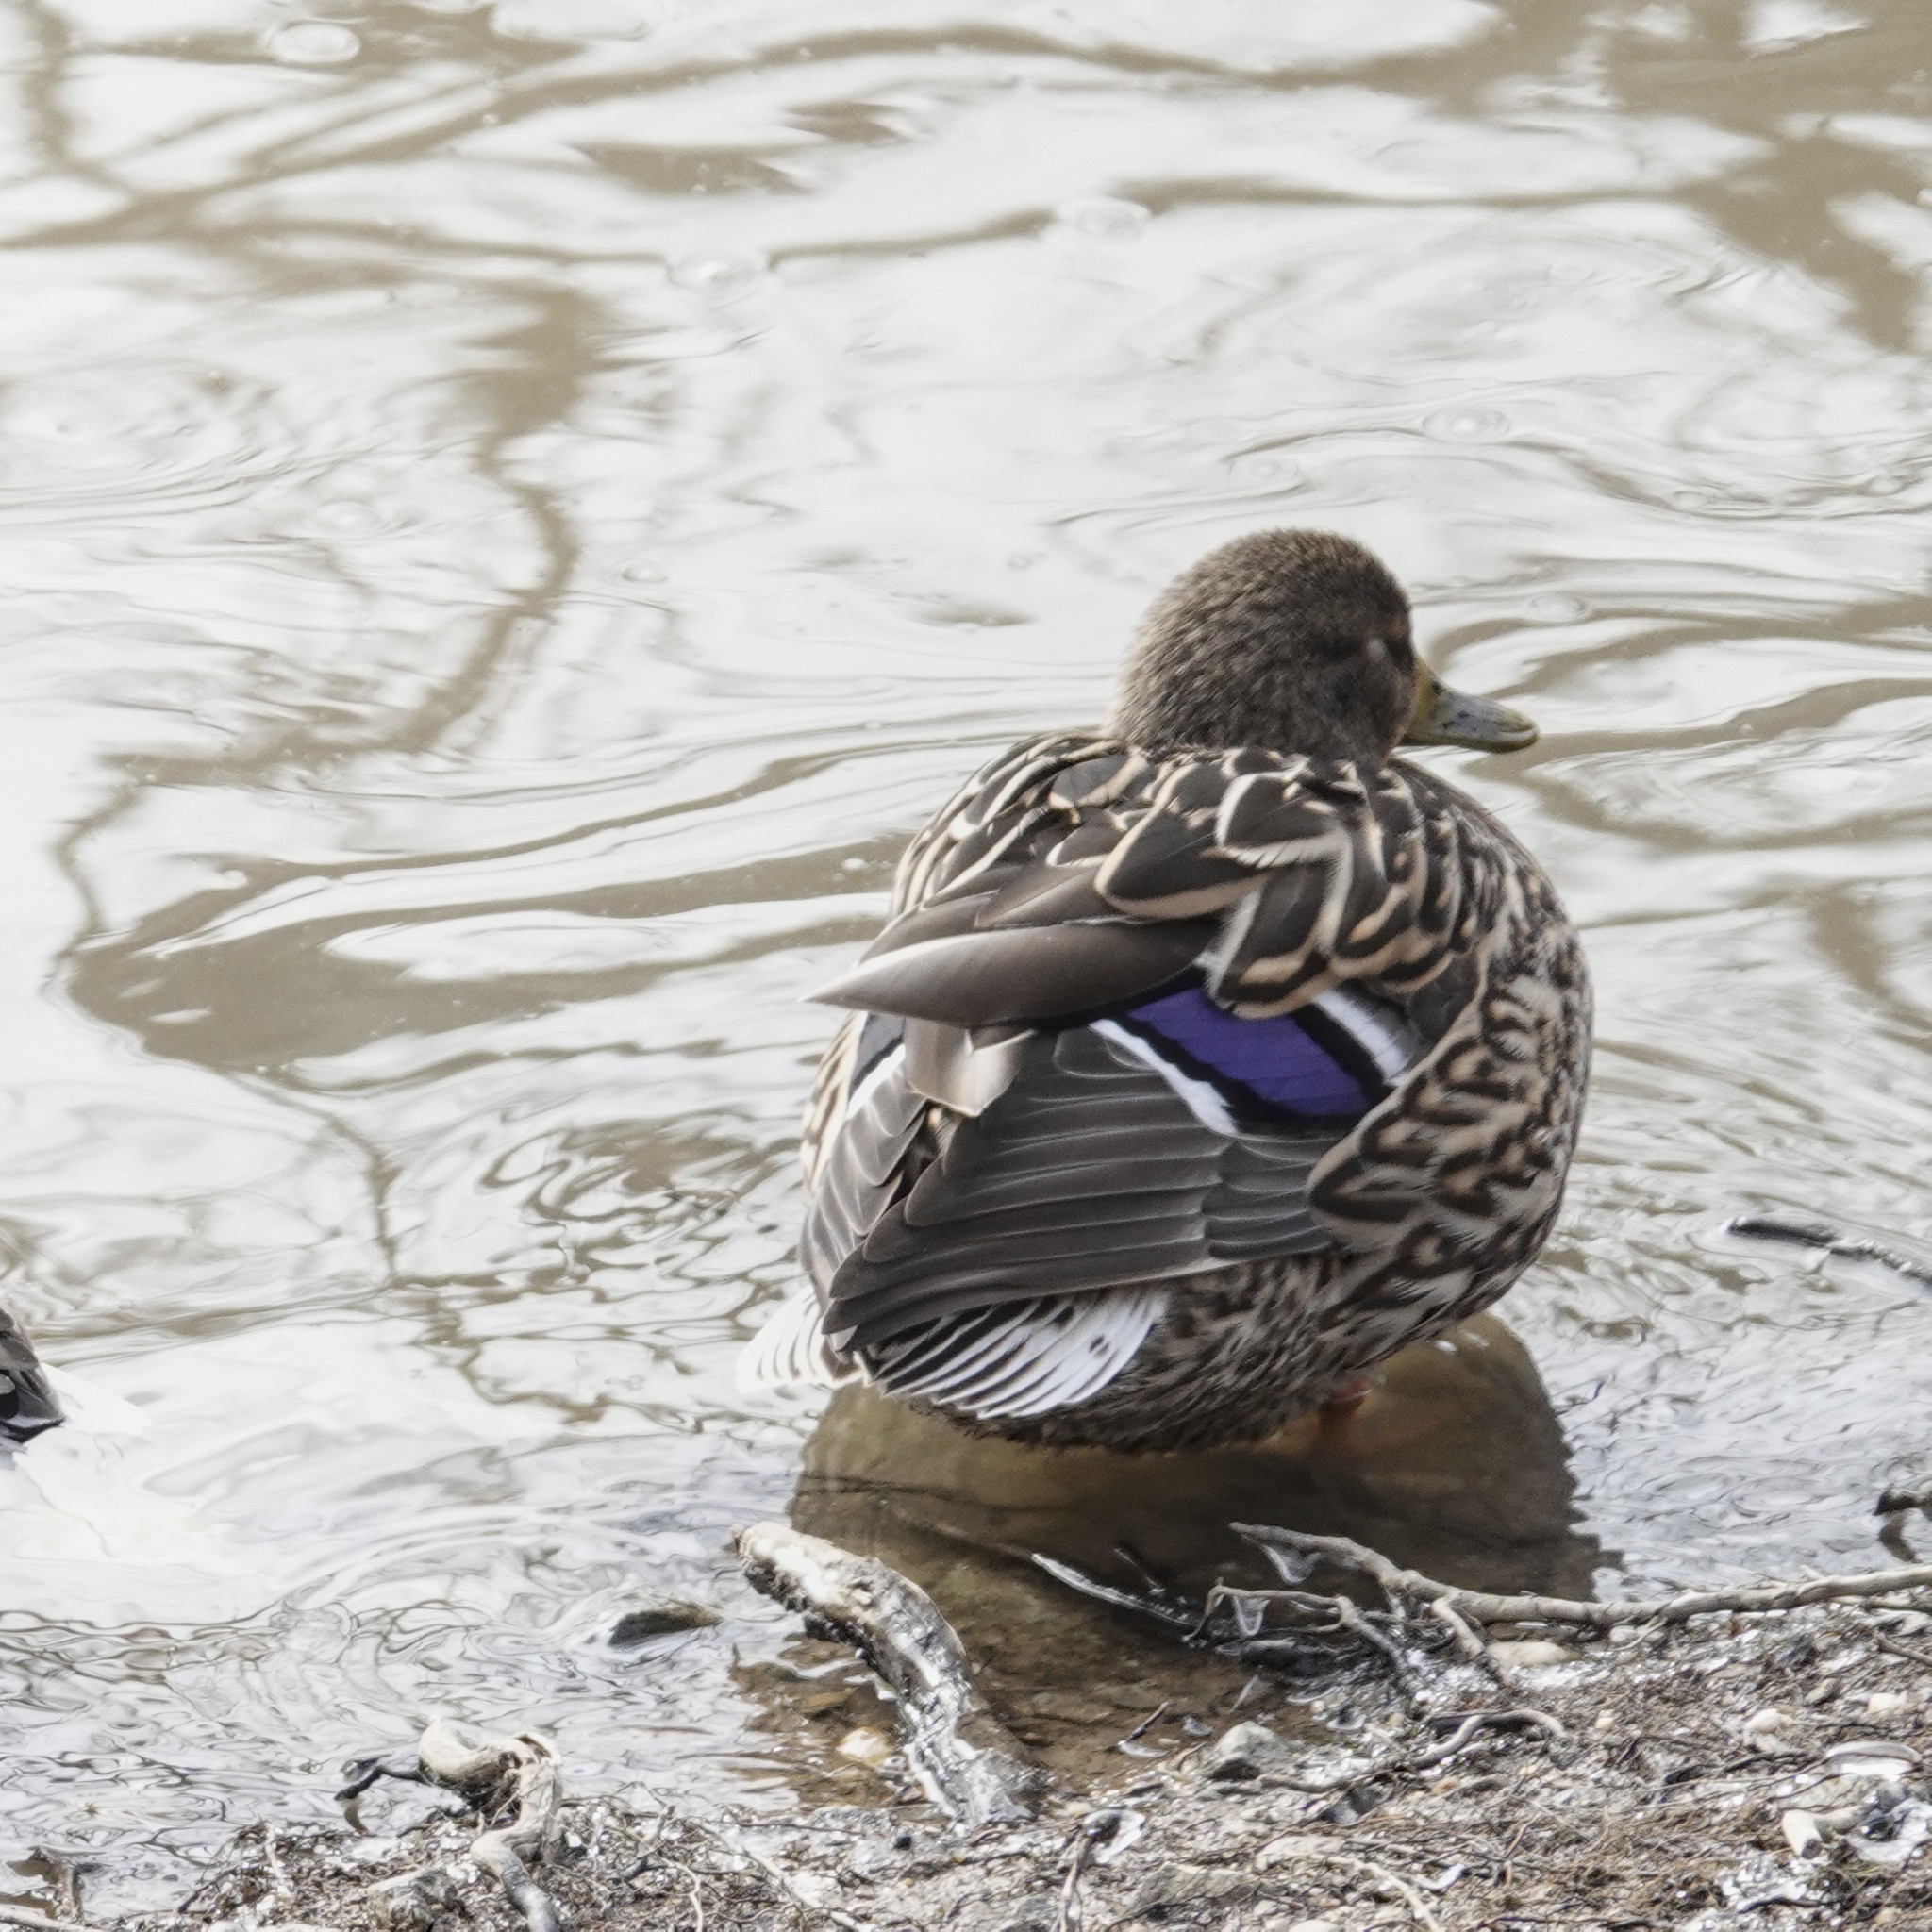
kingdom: Animalia
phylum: Chordata
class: Aves
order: Anseriformes
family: Anatidae
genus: Anas
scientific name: Anas platyrhynchos
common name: Mallard
